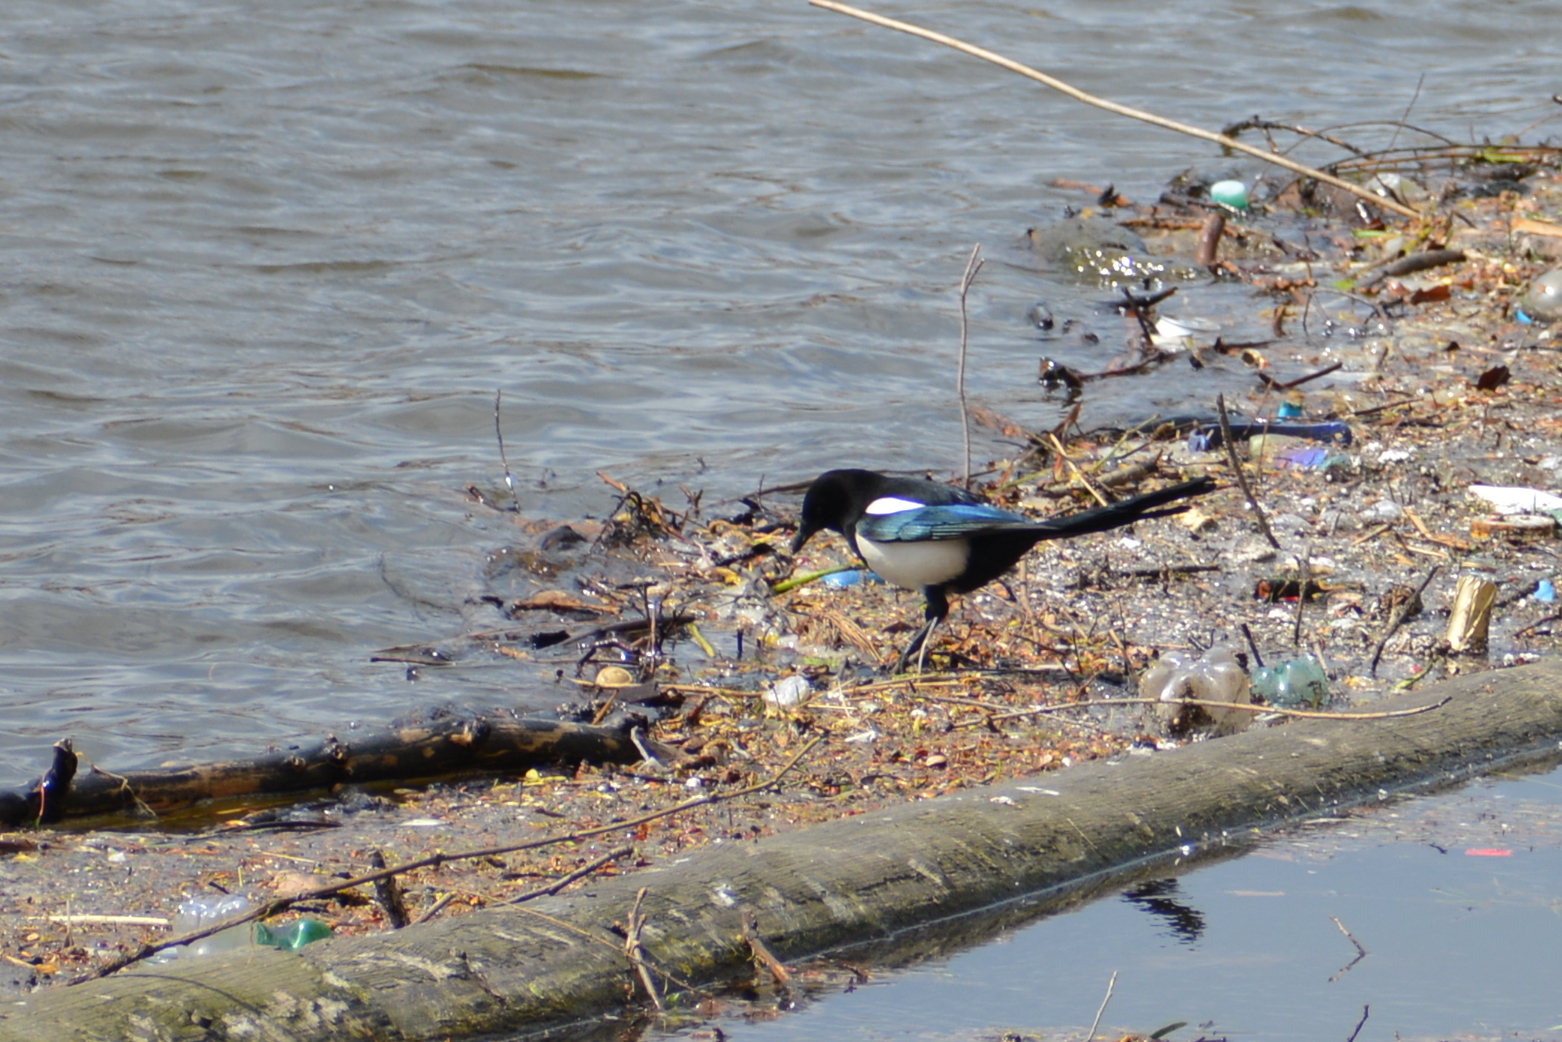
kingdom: Animalia
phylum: Chordata
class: Aves
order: Passeriformes
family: Corvidae
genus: Pica
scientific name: Pica pica
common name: Eurasian magpie
